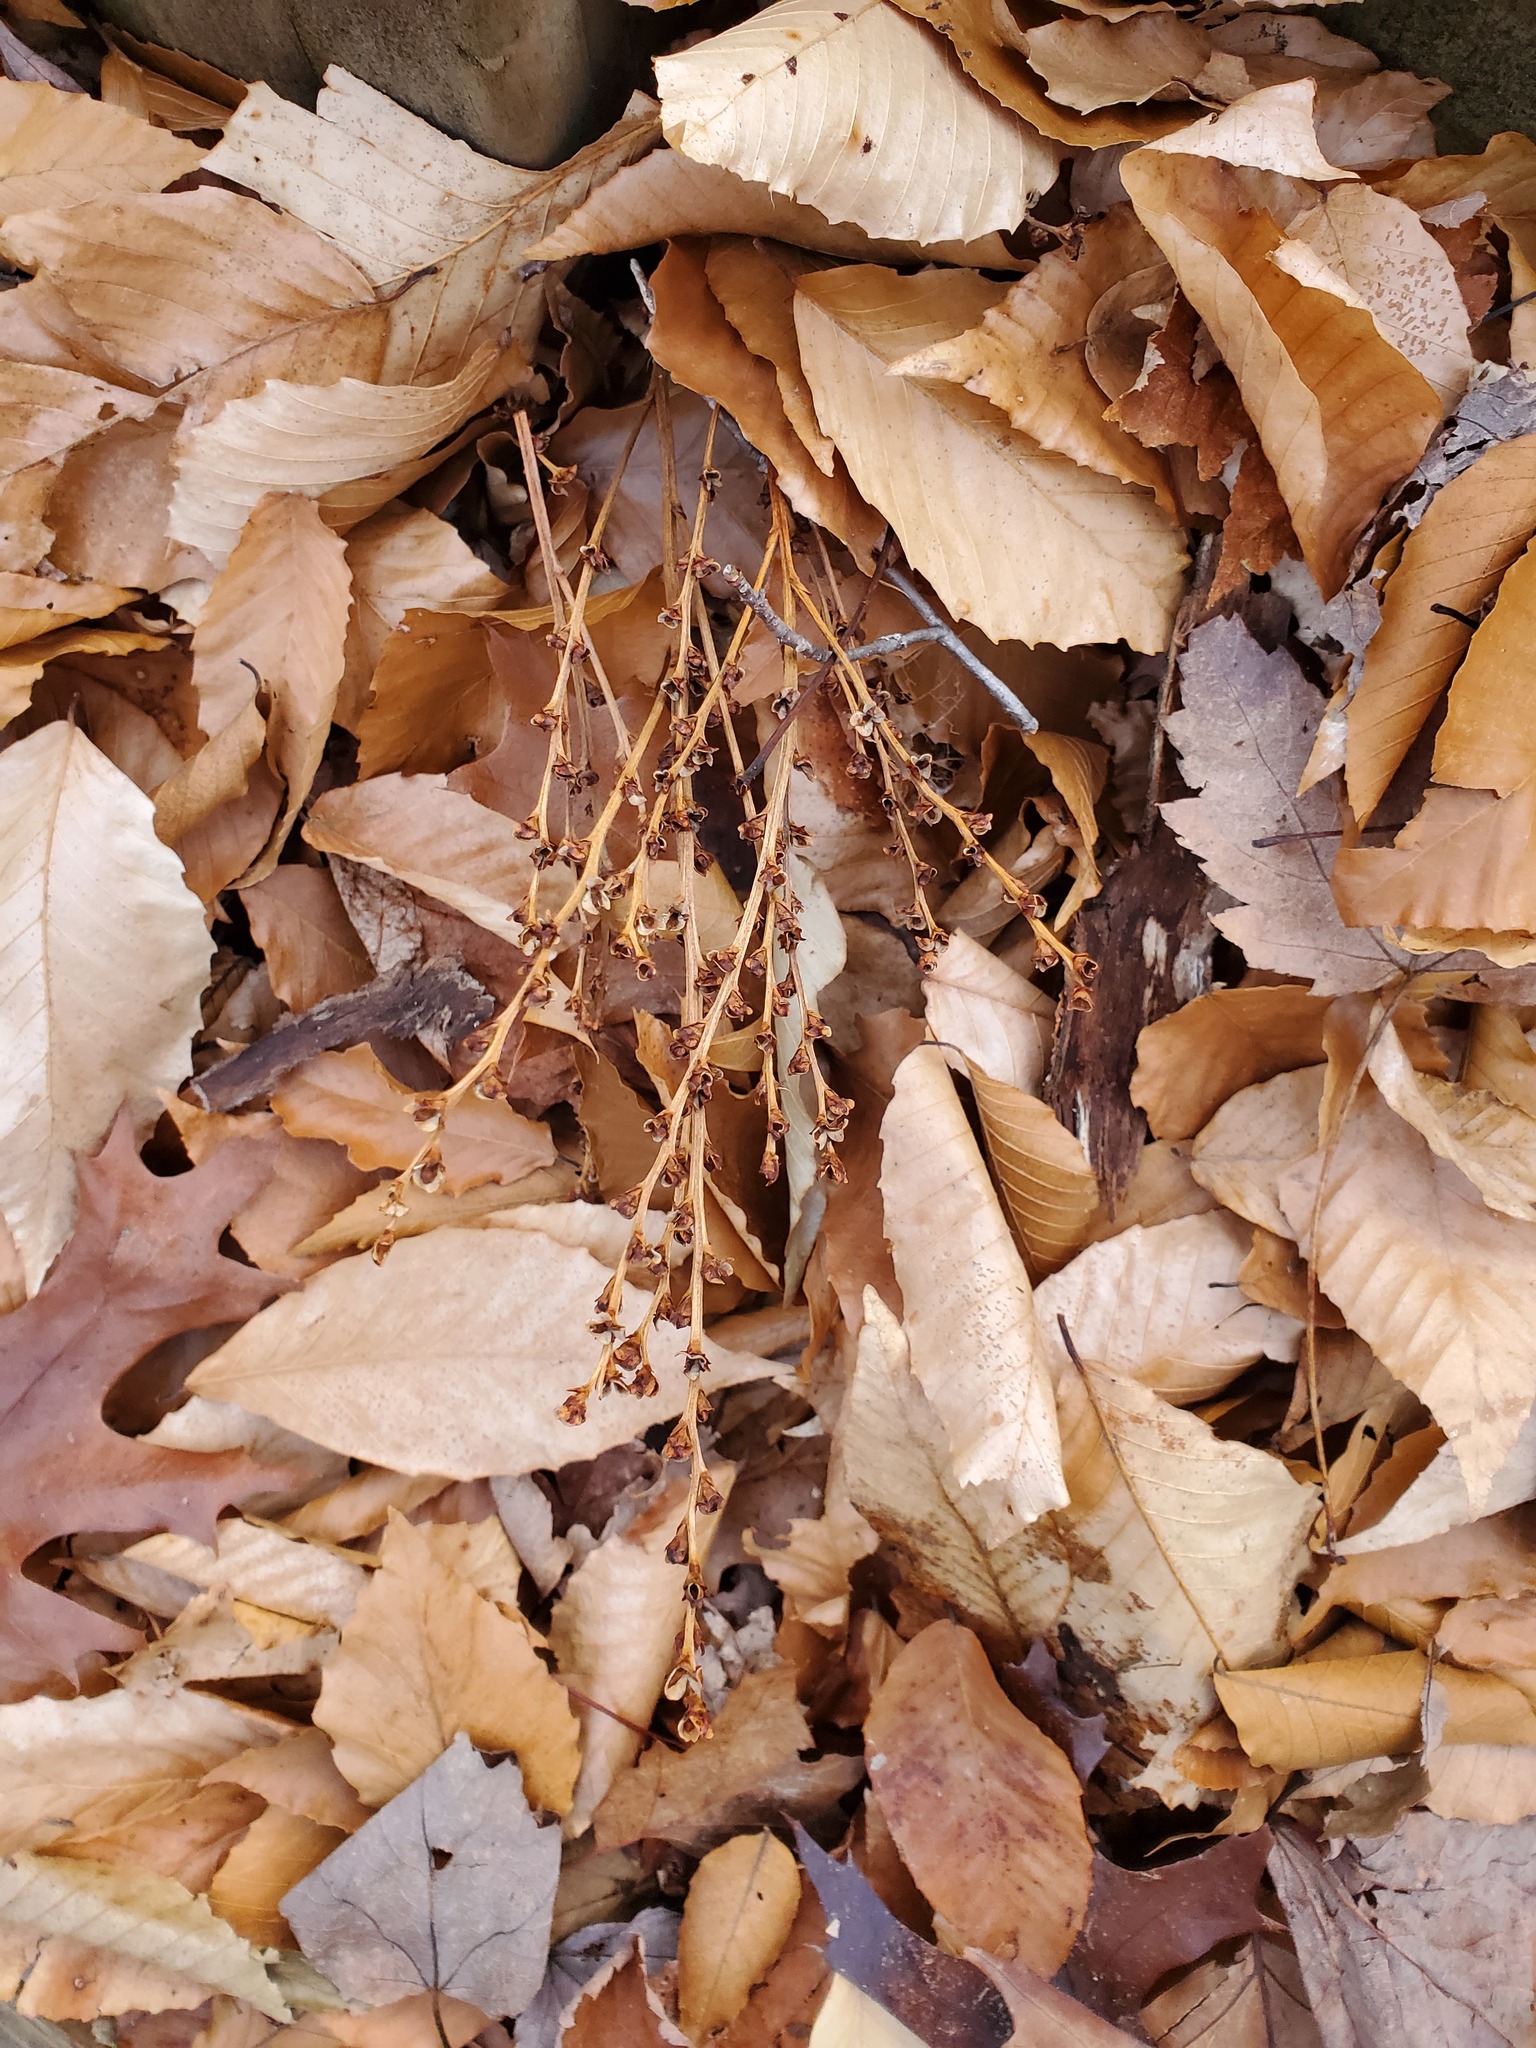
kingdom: Plantae
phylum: Tracheophyta
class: Magnoliopsida
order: Lamiales
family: Orobanchaceae
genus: Epifagus
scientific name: Epifagus virginiana
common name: Beechdrops
